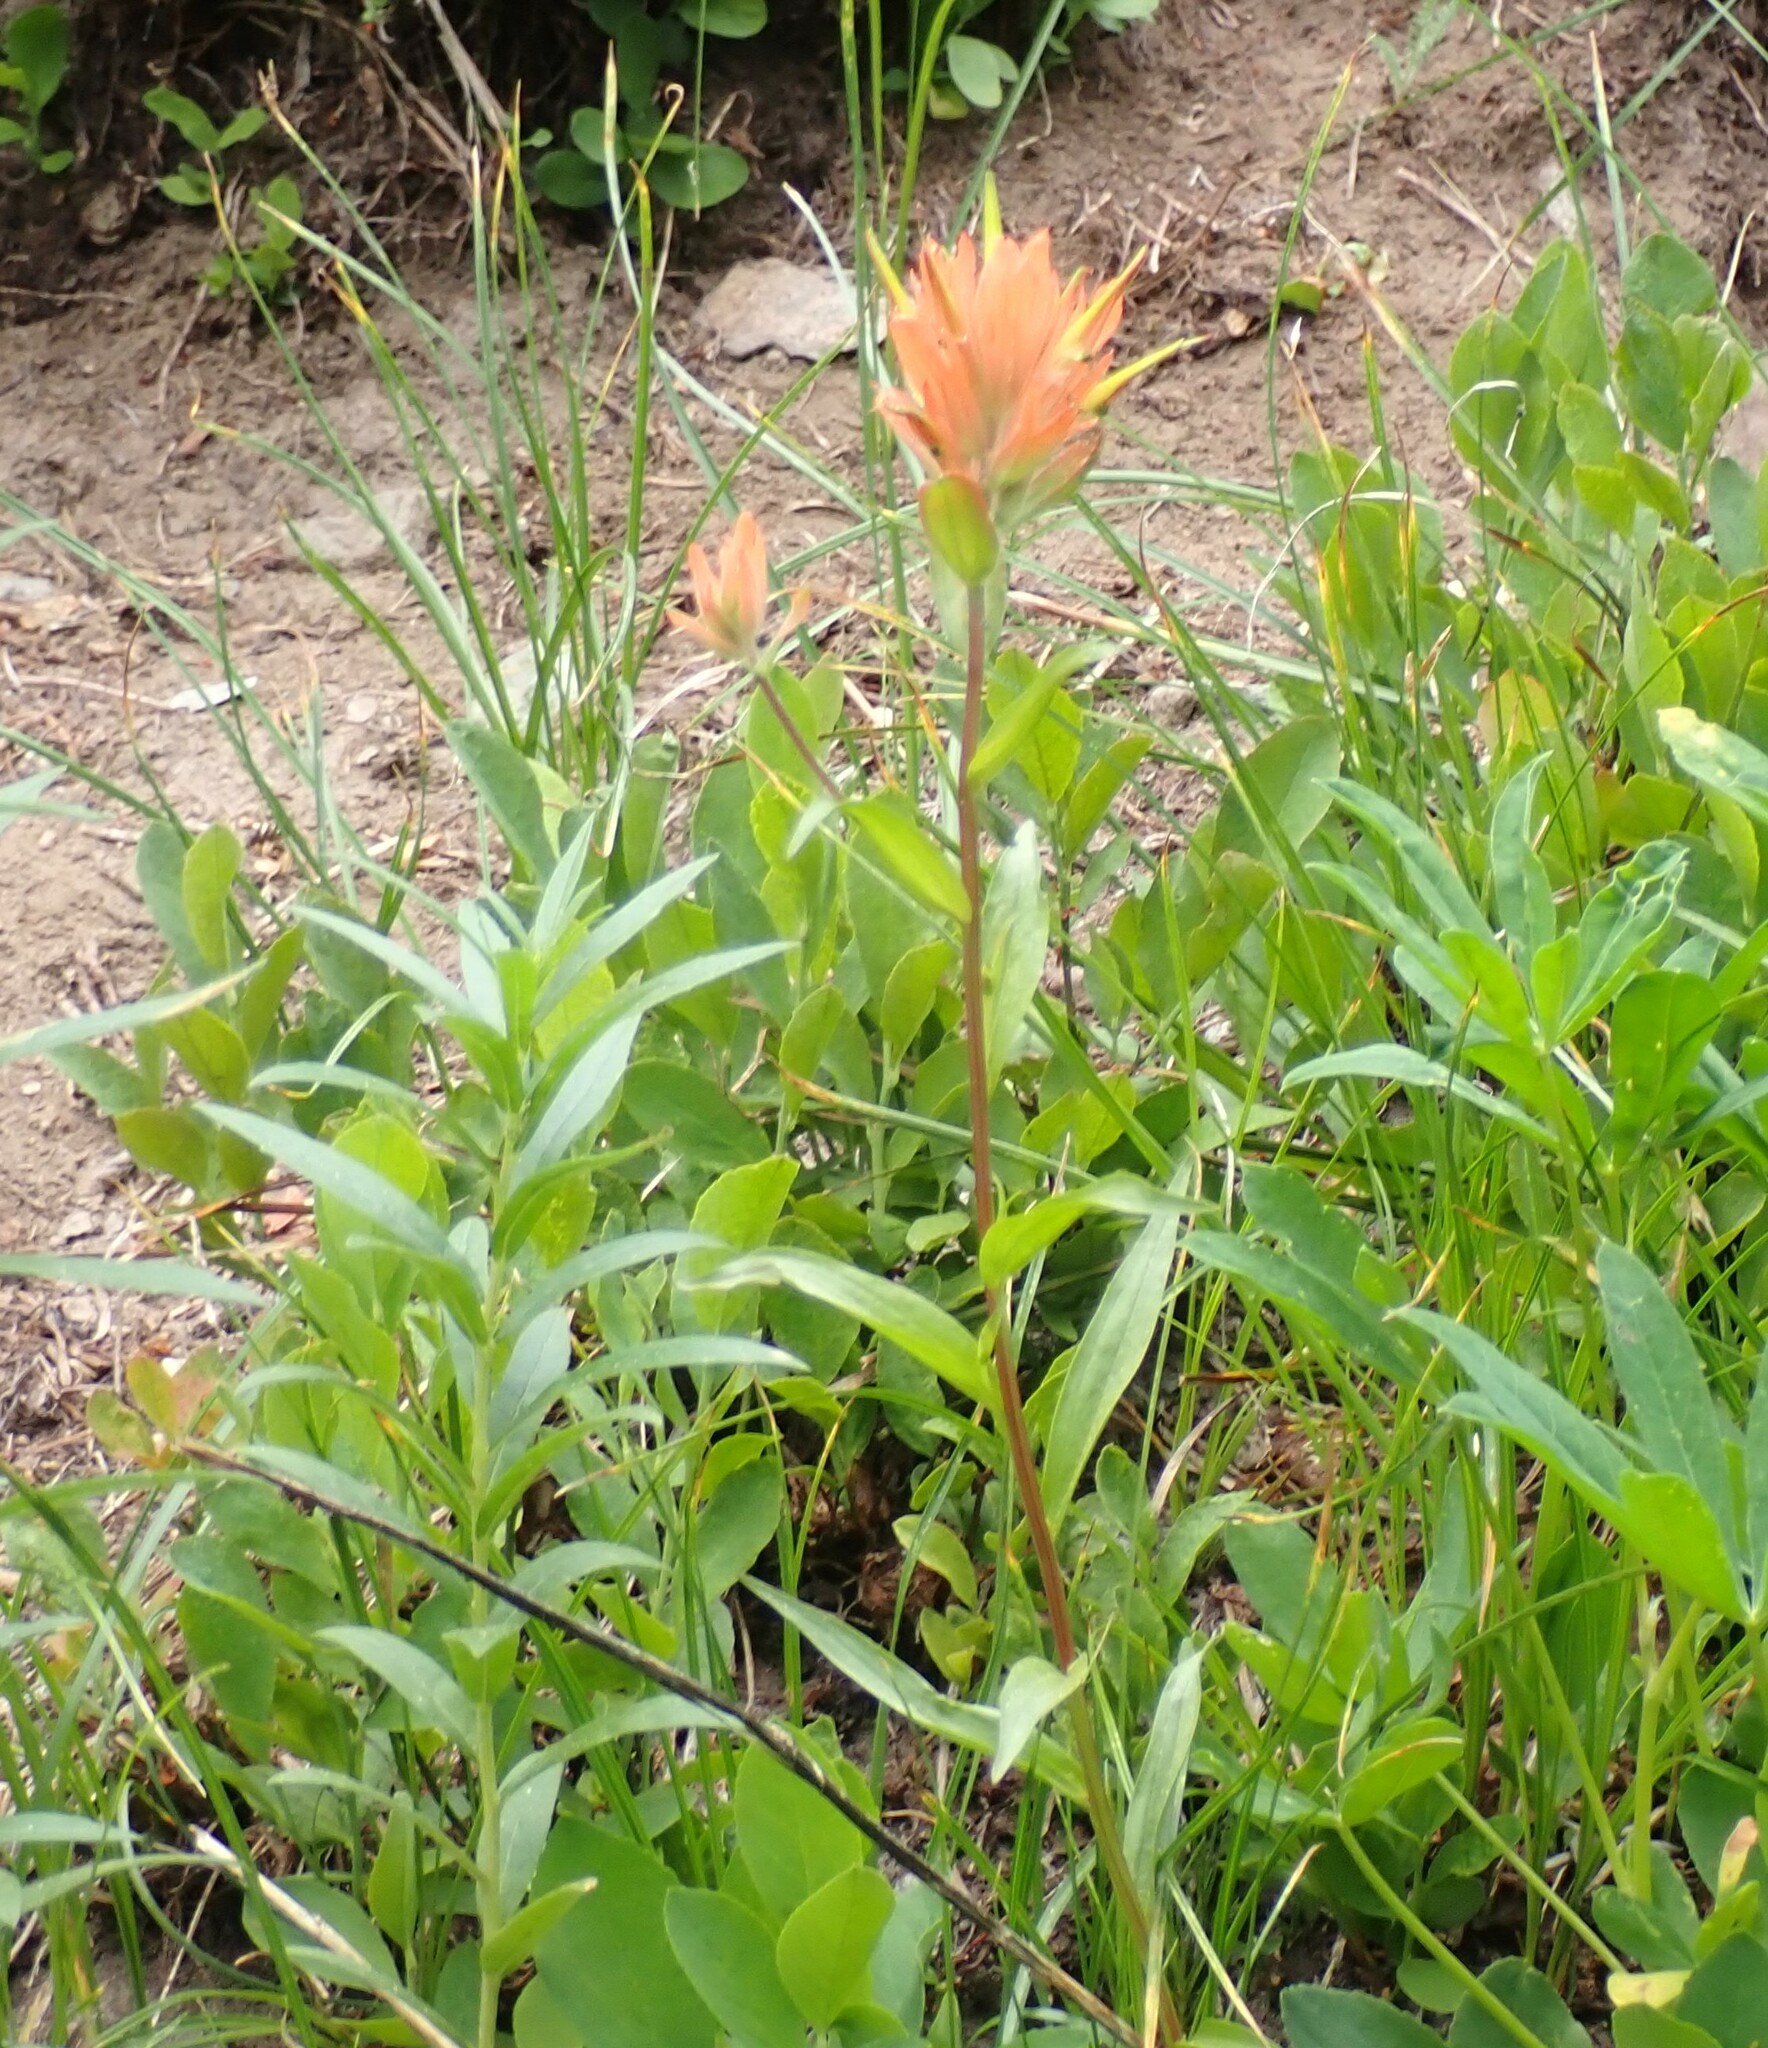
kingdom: Plantae
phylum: Tracheophyta
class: Magnoliopsida
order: Lamiales
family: Orobanchaceae
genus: Castilleja
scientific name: Castilleja miniata
